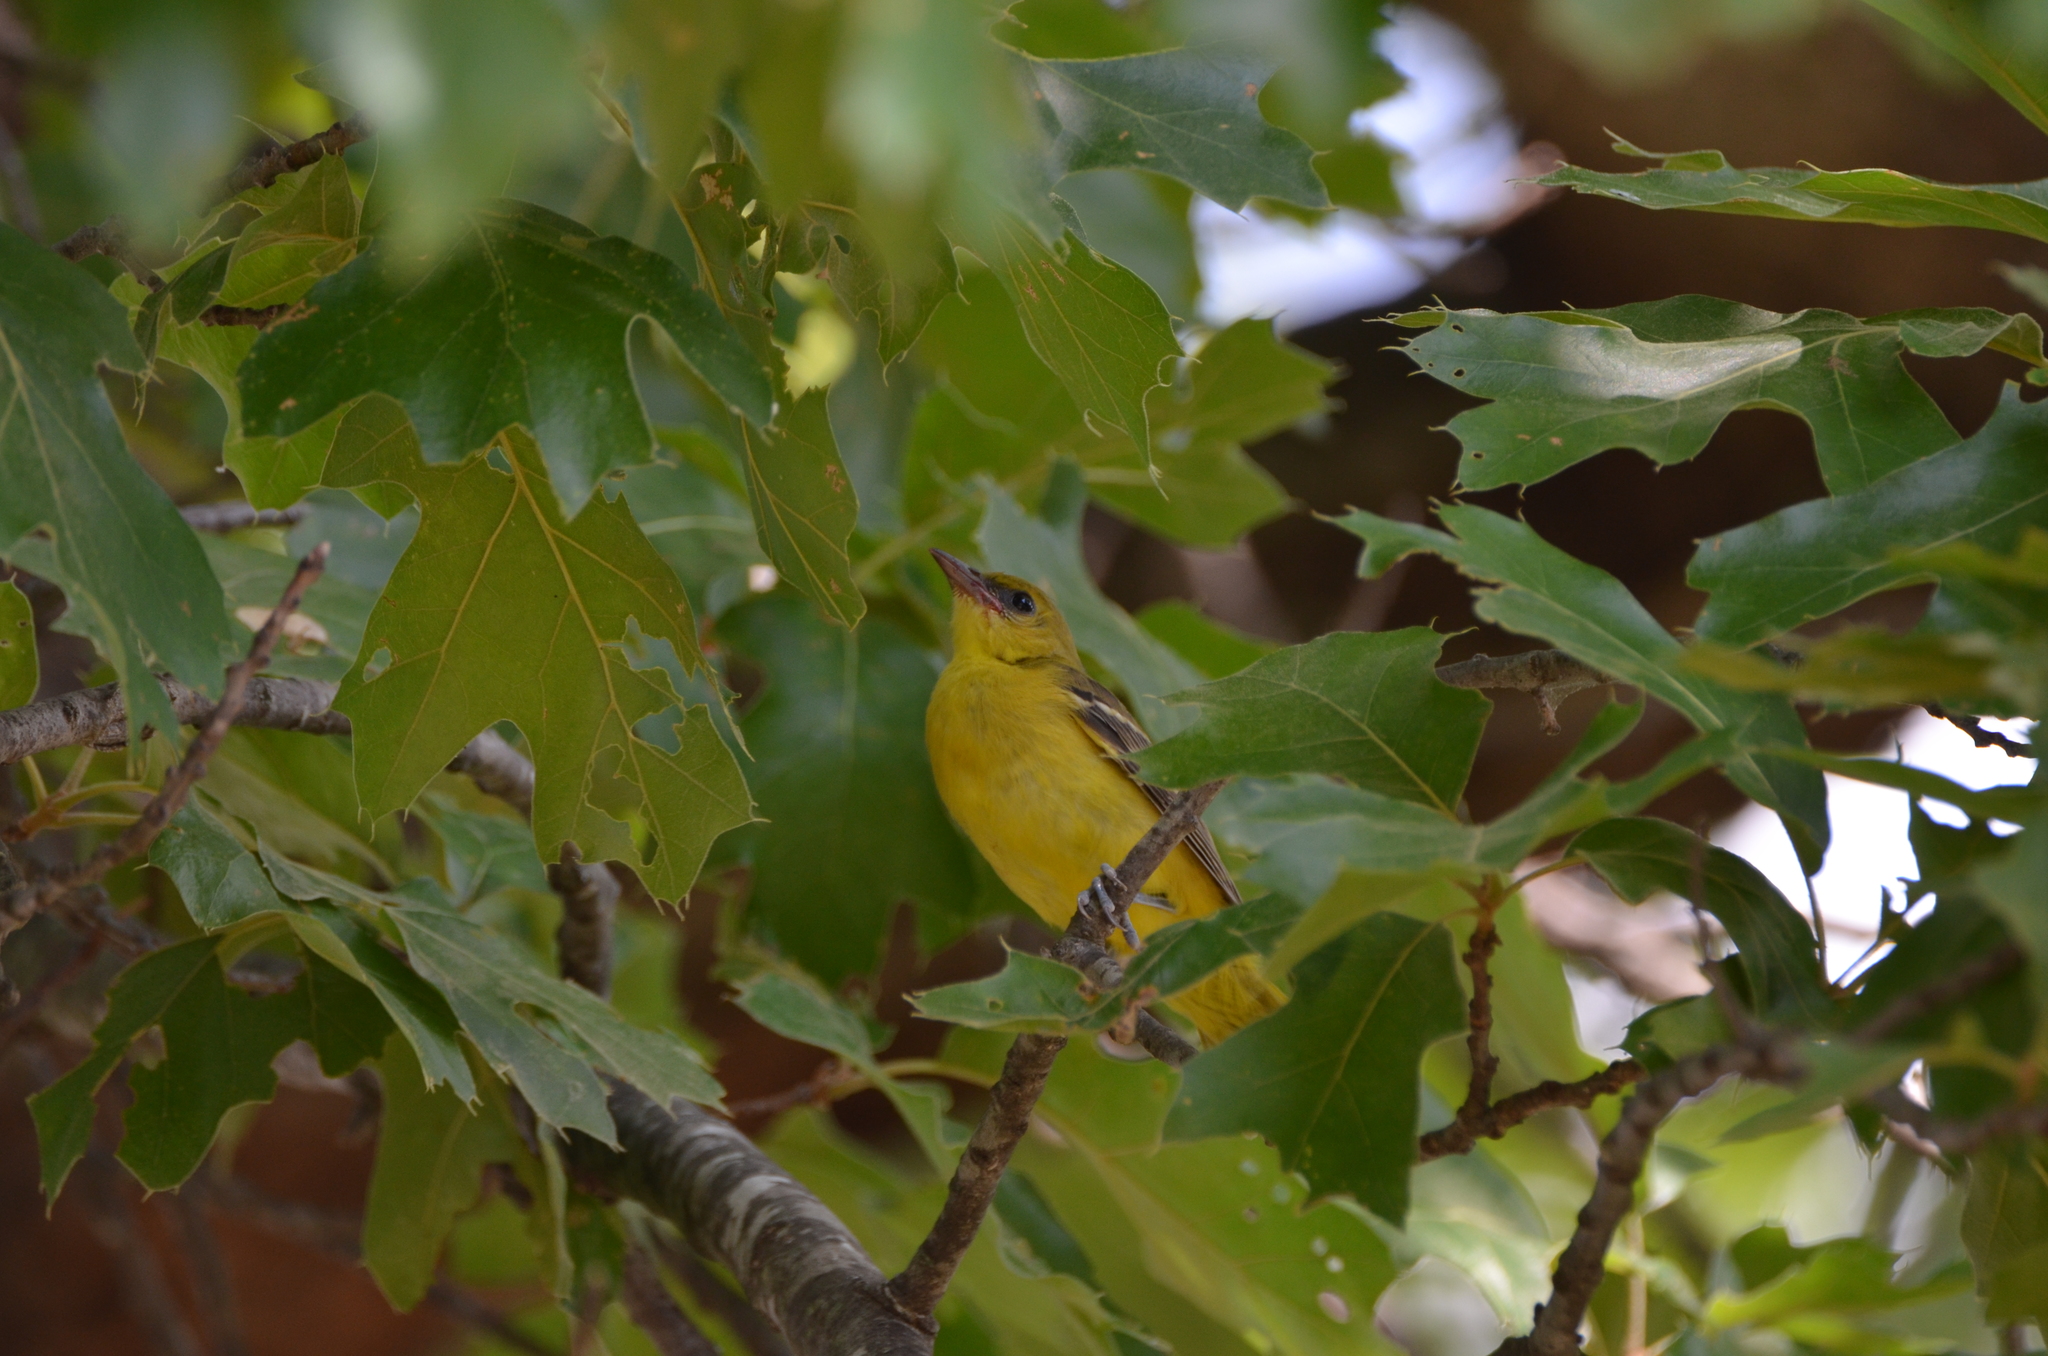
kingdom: Animalia
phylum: Chordata
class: Aves
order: Passeriformes
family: Icteridae
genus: Icterus
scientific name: Icterus spurius
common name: Orchard oriole
